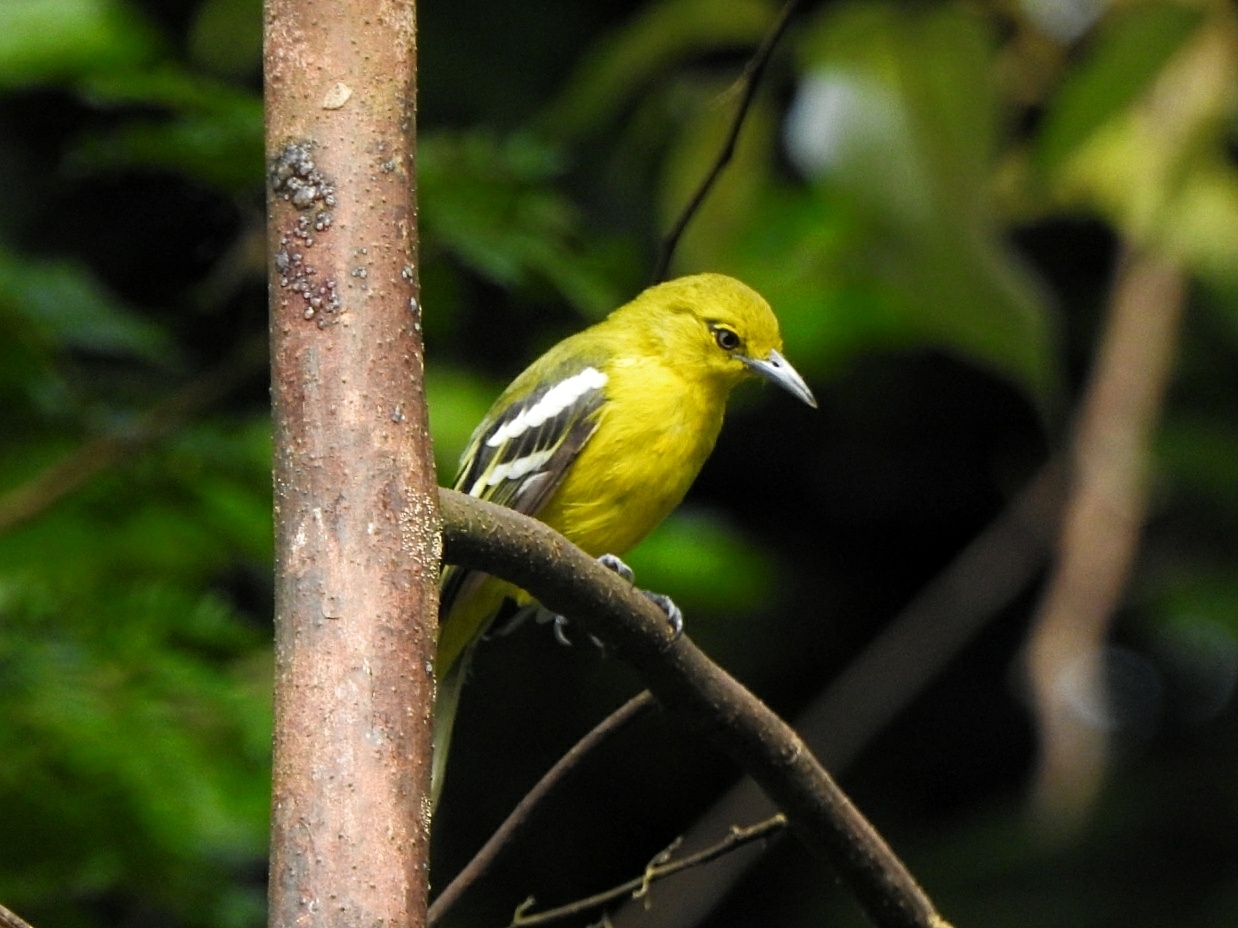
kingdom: Animalia
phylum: Chordata
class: Aves
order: Passeriformes
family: Aegithinidae
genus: Aegithina
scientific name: Aegithina tiphia
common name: Common iora
